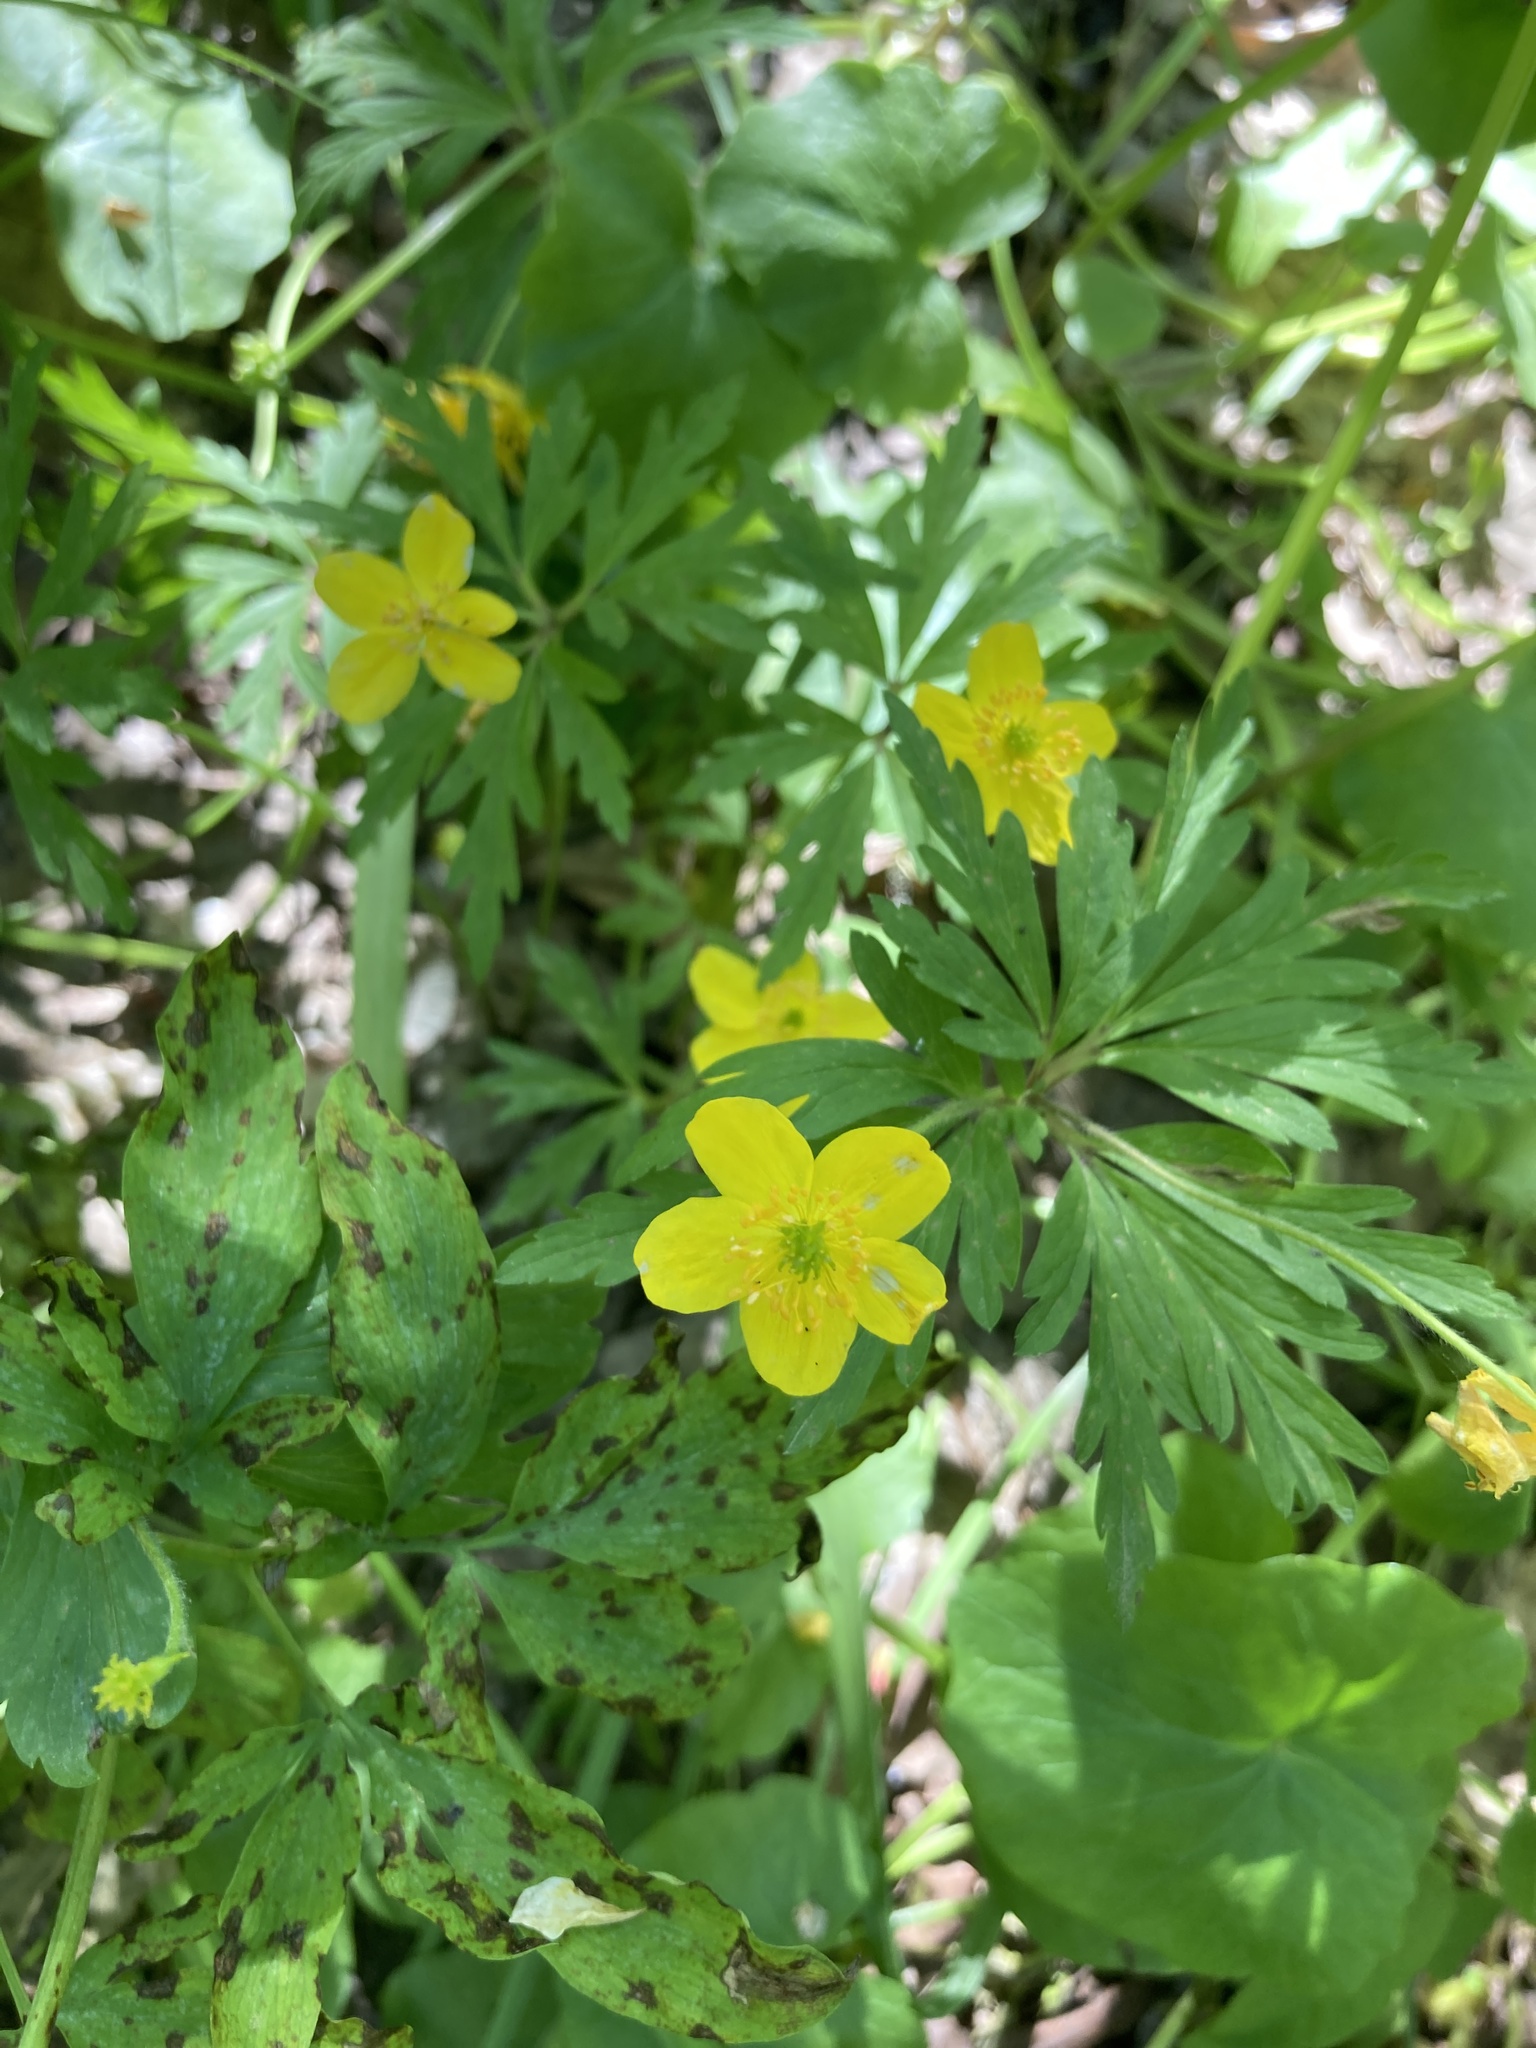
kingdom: Plantae
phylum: Tracheophyta
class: Magnoliopsida
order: Ranunculales
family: Ranunculaceae
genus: Anemone
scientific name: Anemone ranunculoides
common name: Yellow anemone
